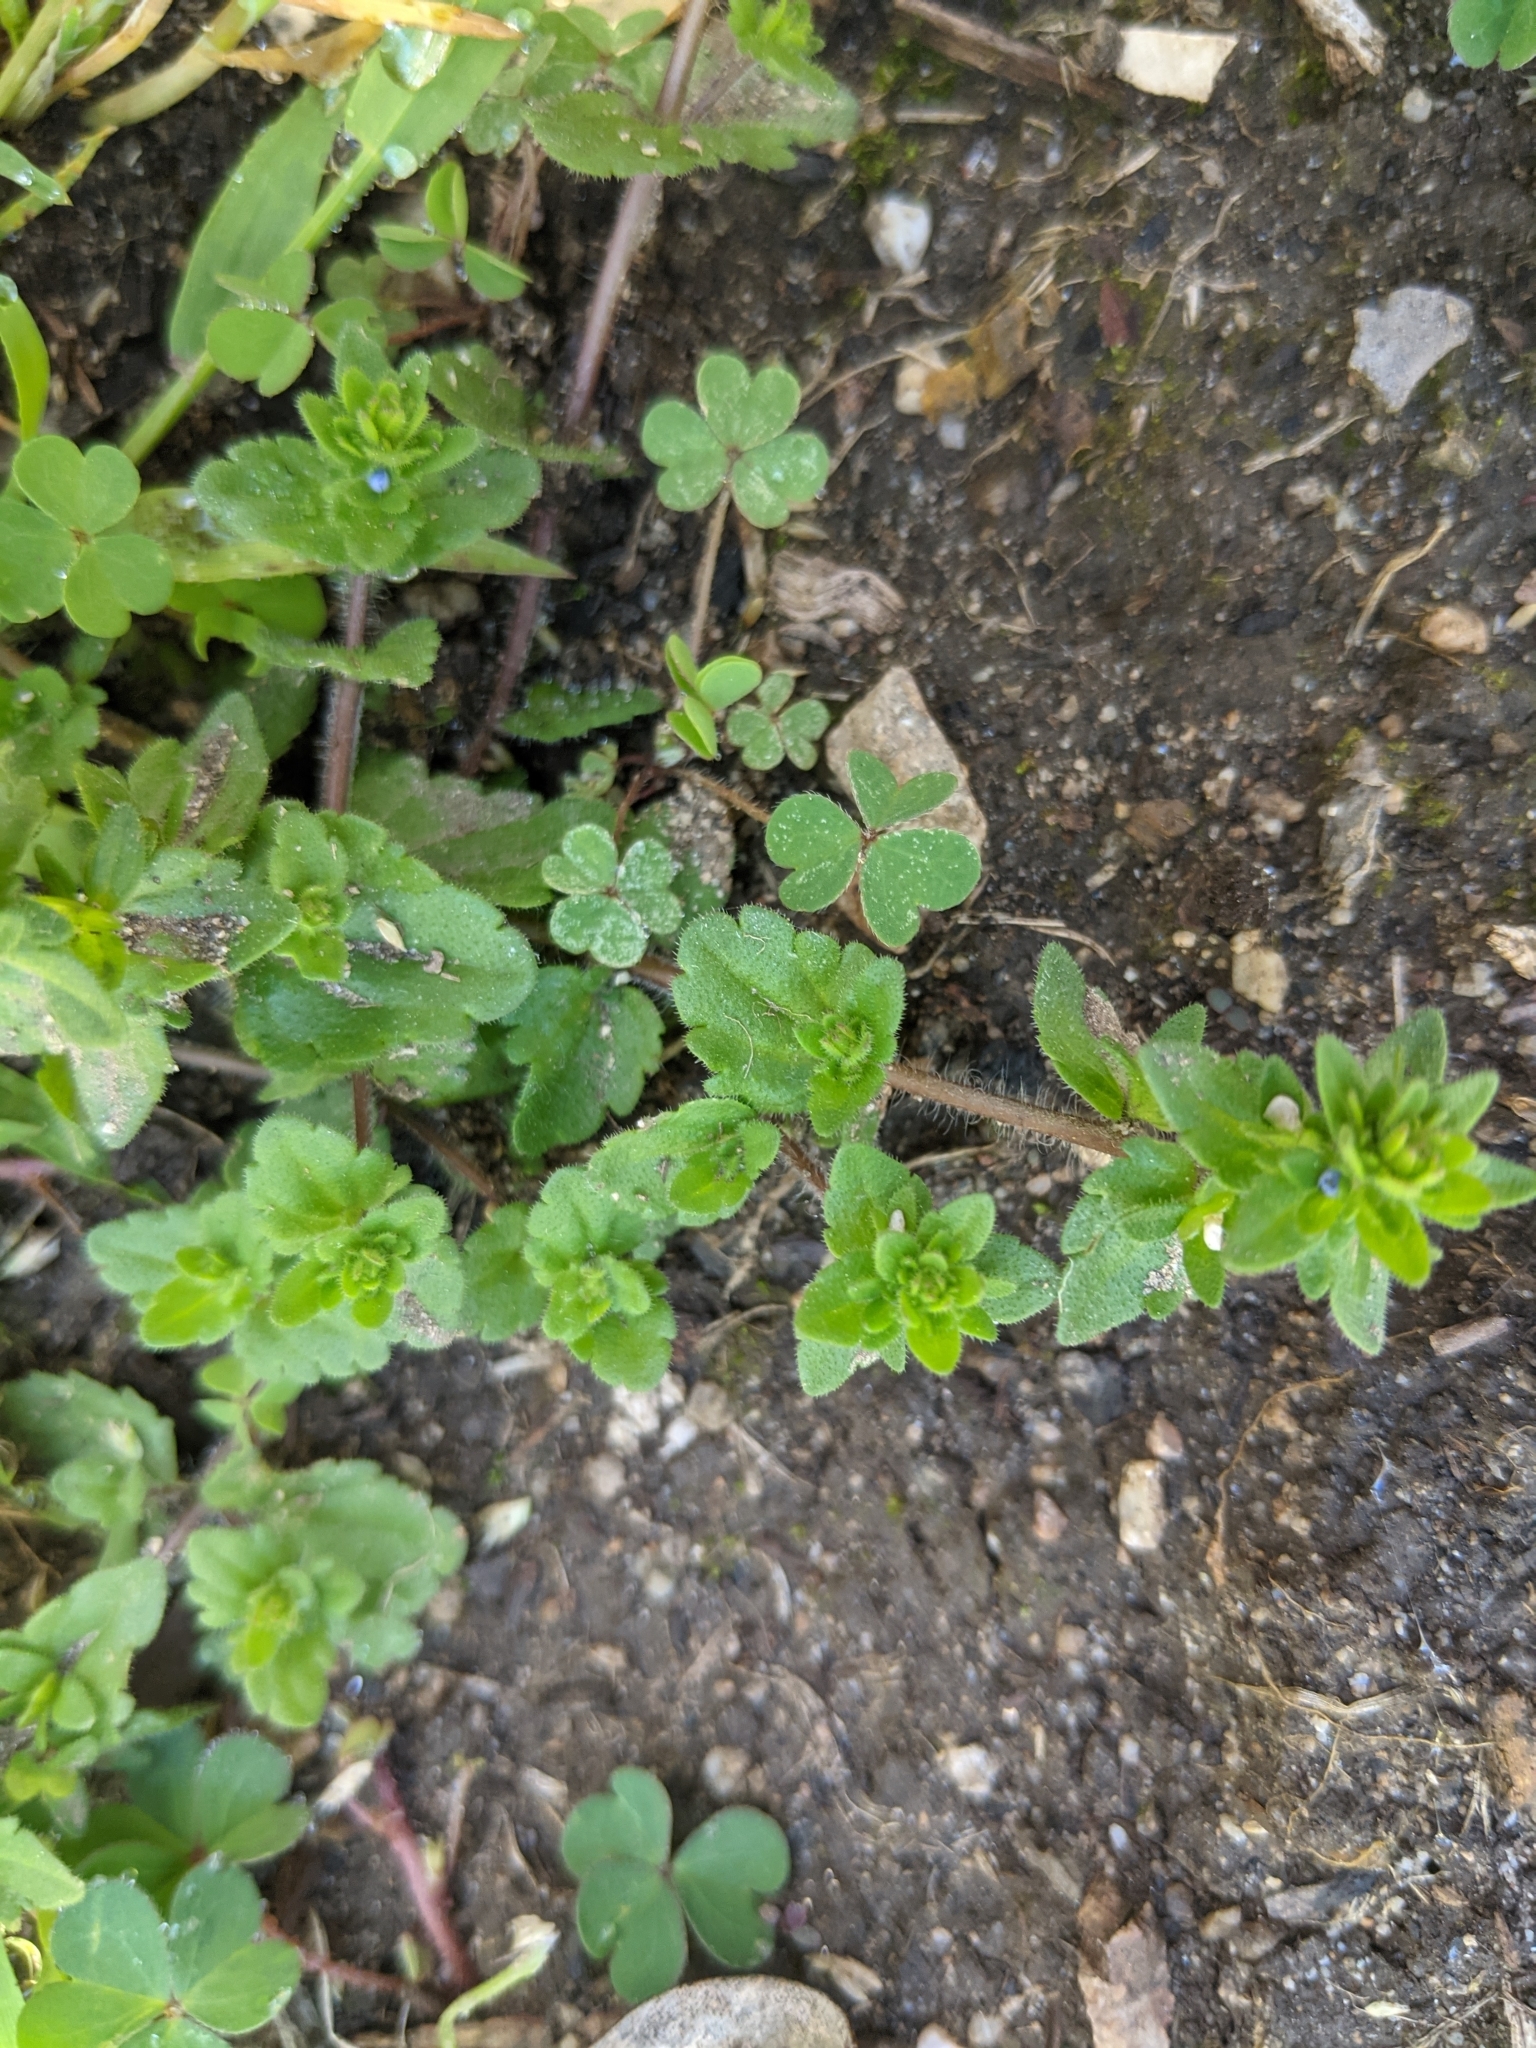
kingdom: Plantae
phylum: Tracheophyta
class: Magnoliopsida
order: Lamiales
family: Plantaginaceae
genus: Veronica
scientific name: Veronica arvensis
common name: Corn speedwell
